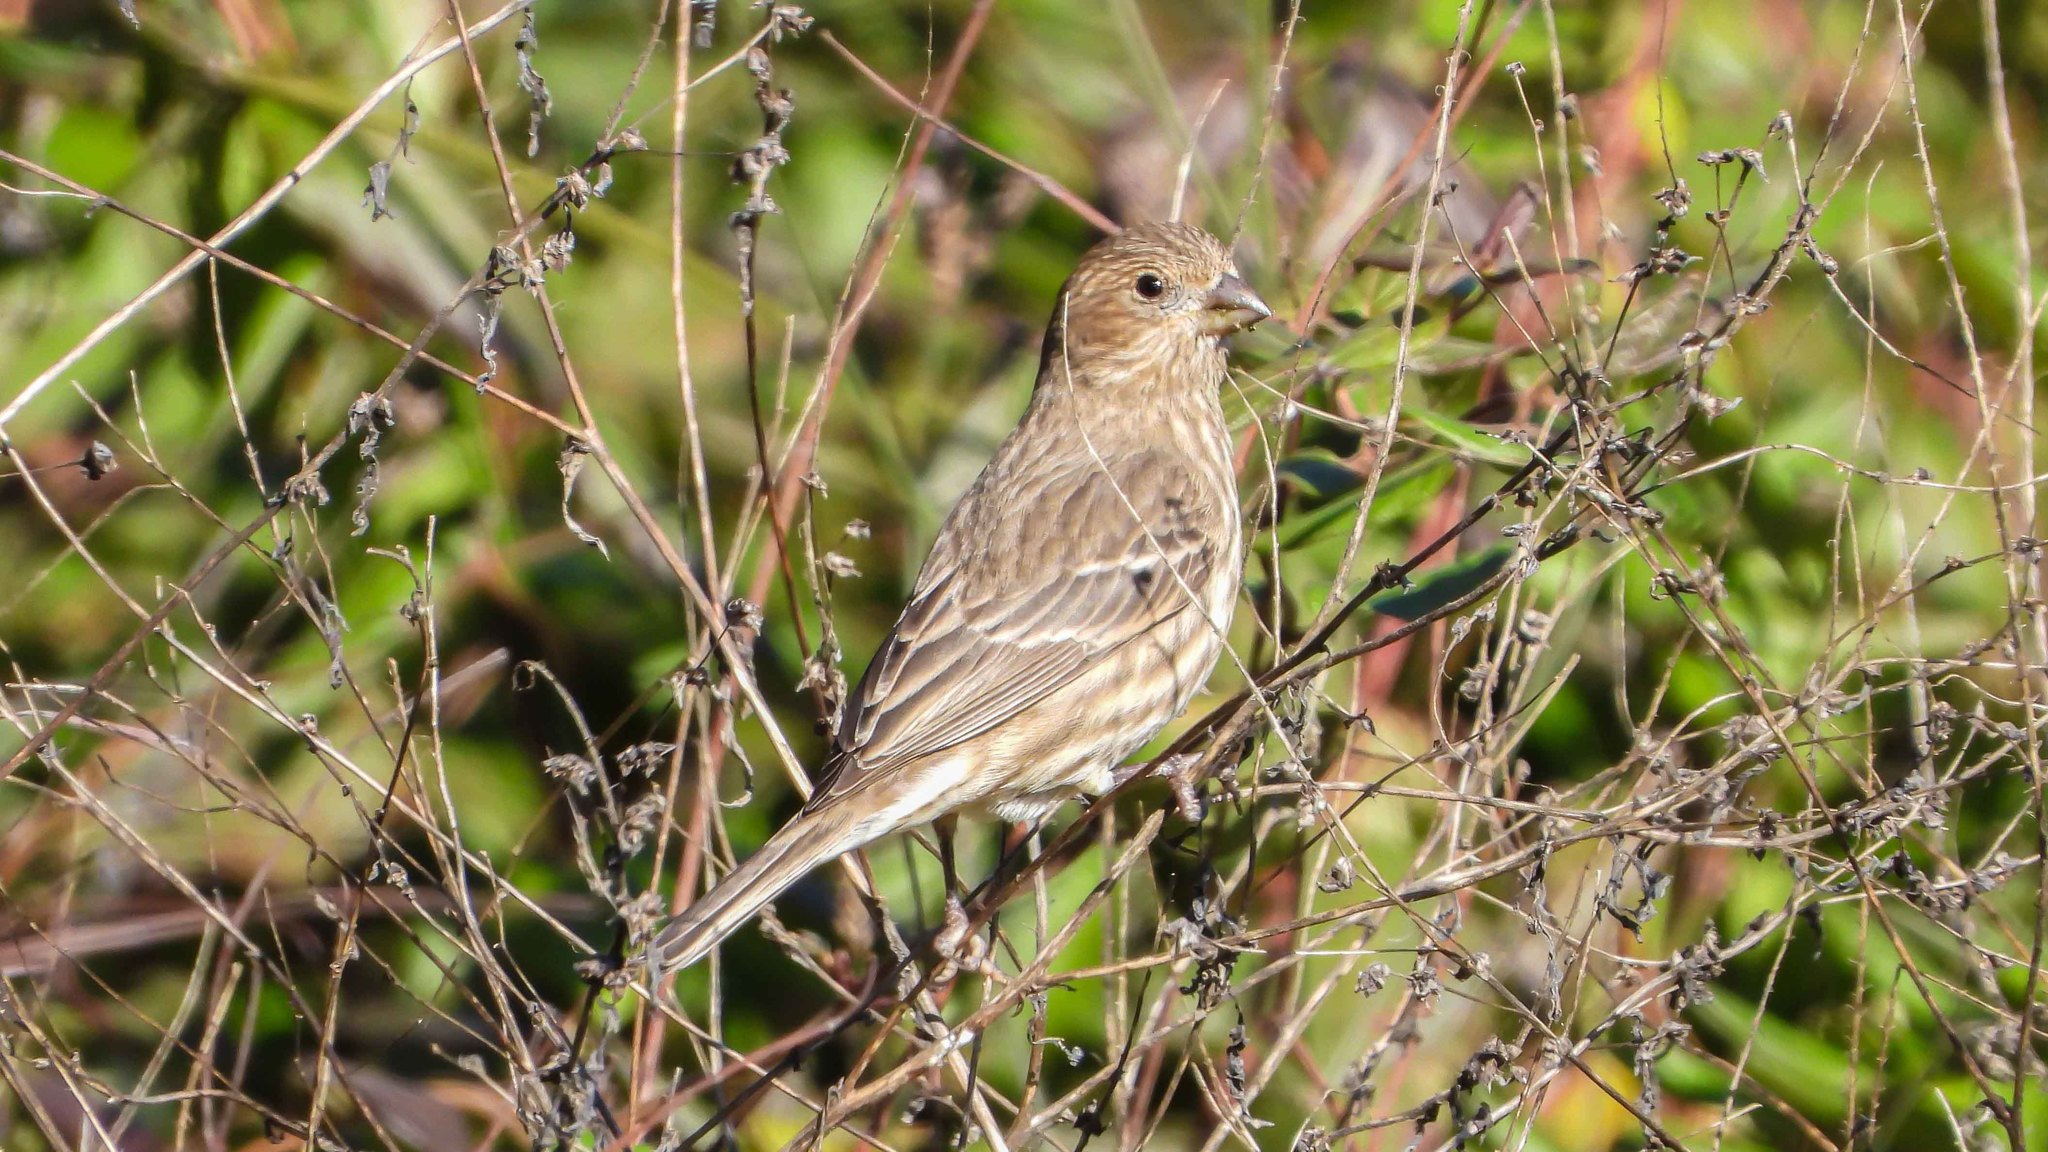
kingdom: Animalia
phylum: Chordata
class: Aves
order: Passeriformes
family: Fringillidae
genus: Haemorhous
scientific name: Haemorhous mexicanus
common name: House finch
